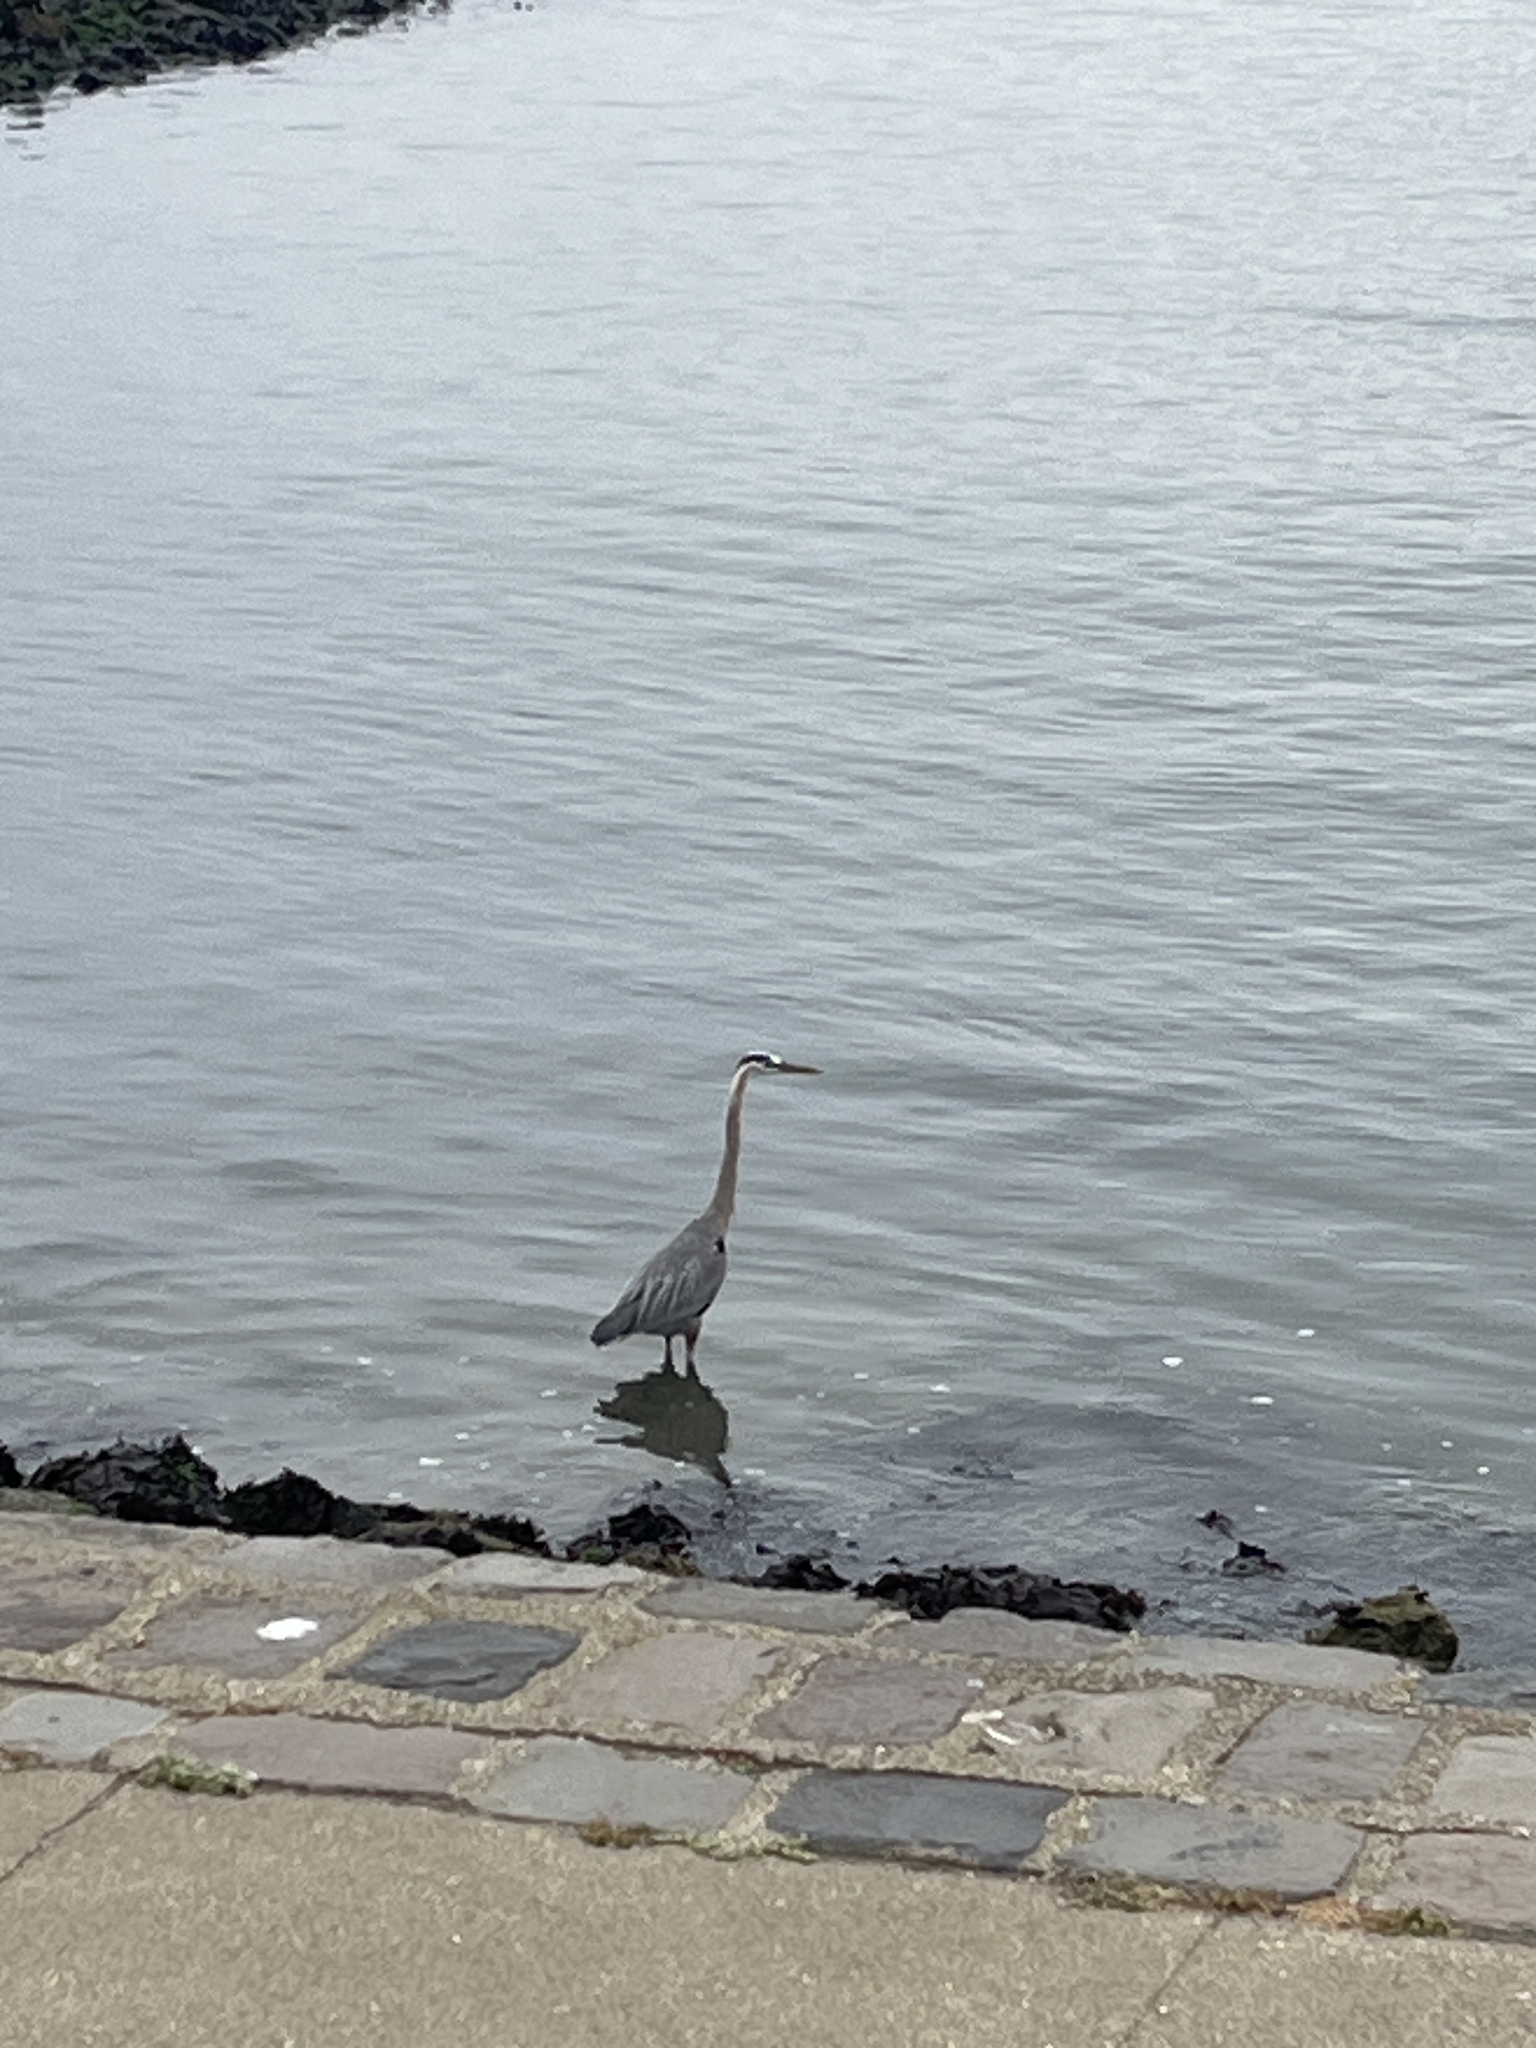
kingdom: Animalia
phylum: Chordata
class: Aves
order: Pelecaniformes
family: Ardeidae
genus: Ardea
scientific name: Ardea herodias
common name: Great blue heron
